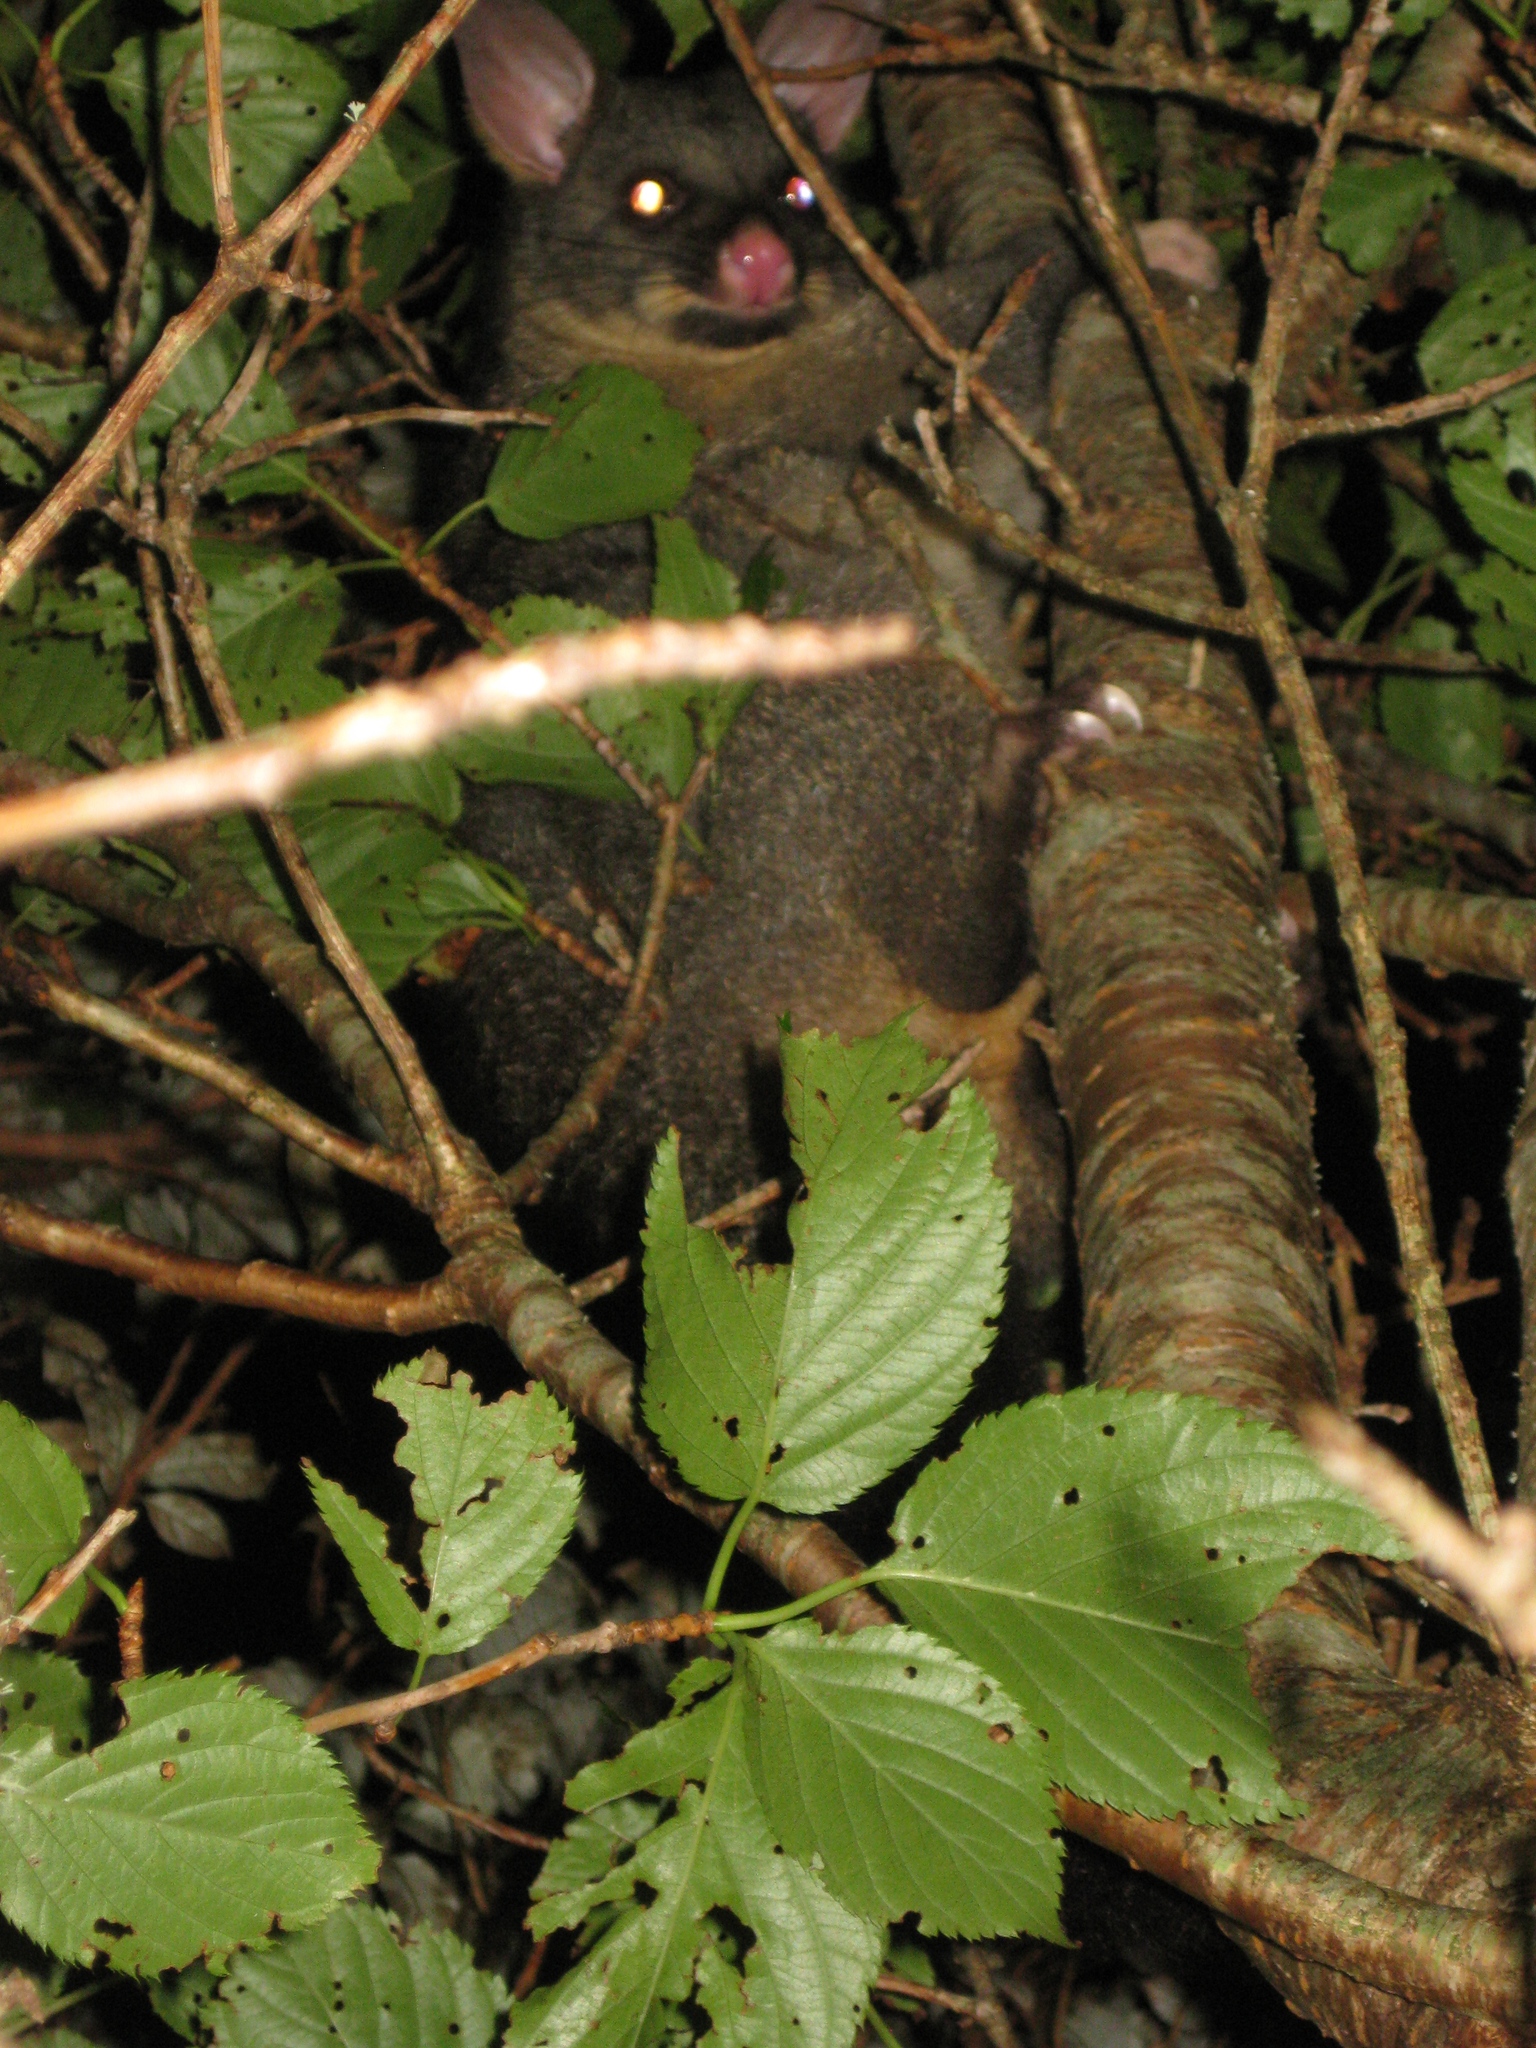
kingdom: Animalia
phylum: Chordata
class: Mammalia
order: Diprotodontia
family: Phalangeridae
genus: Trichosurus
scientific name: Trichosurus vulpecula
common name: Common brushtail
